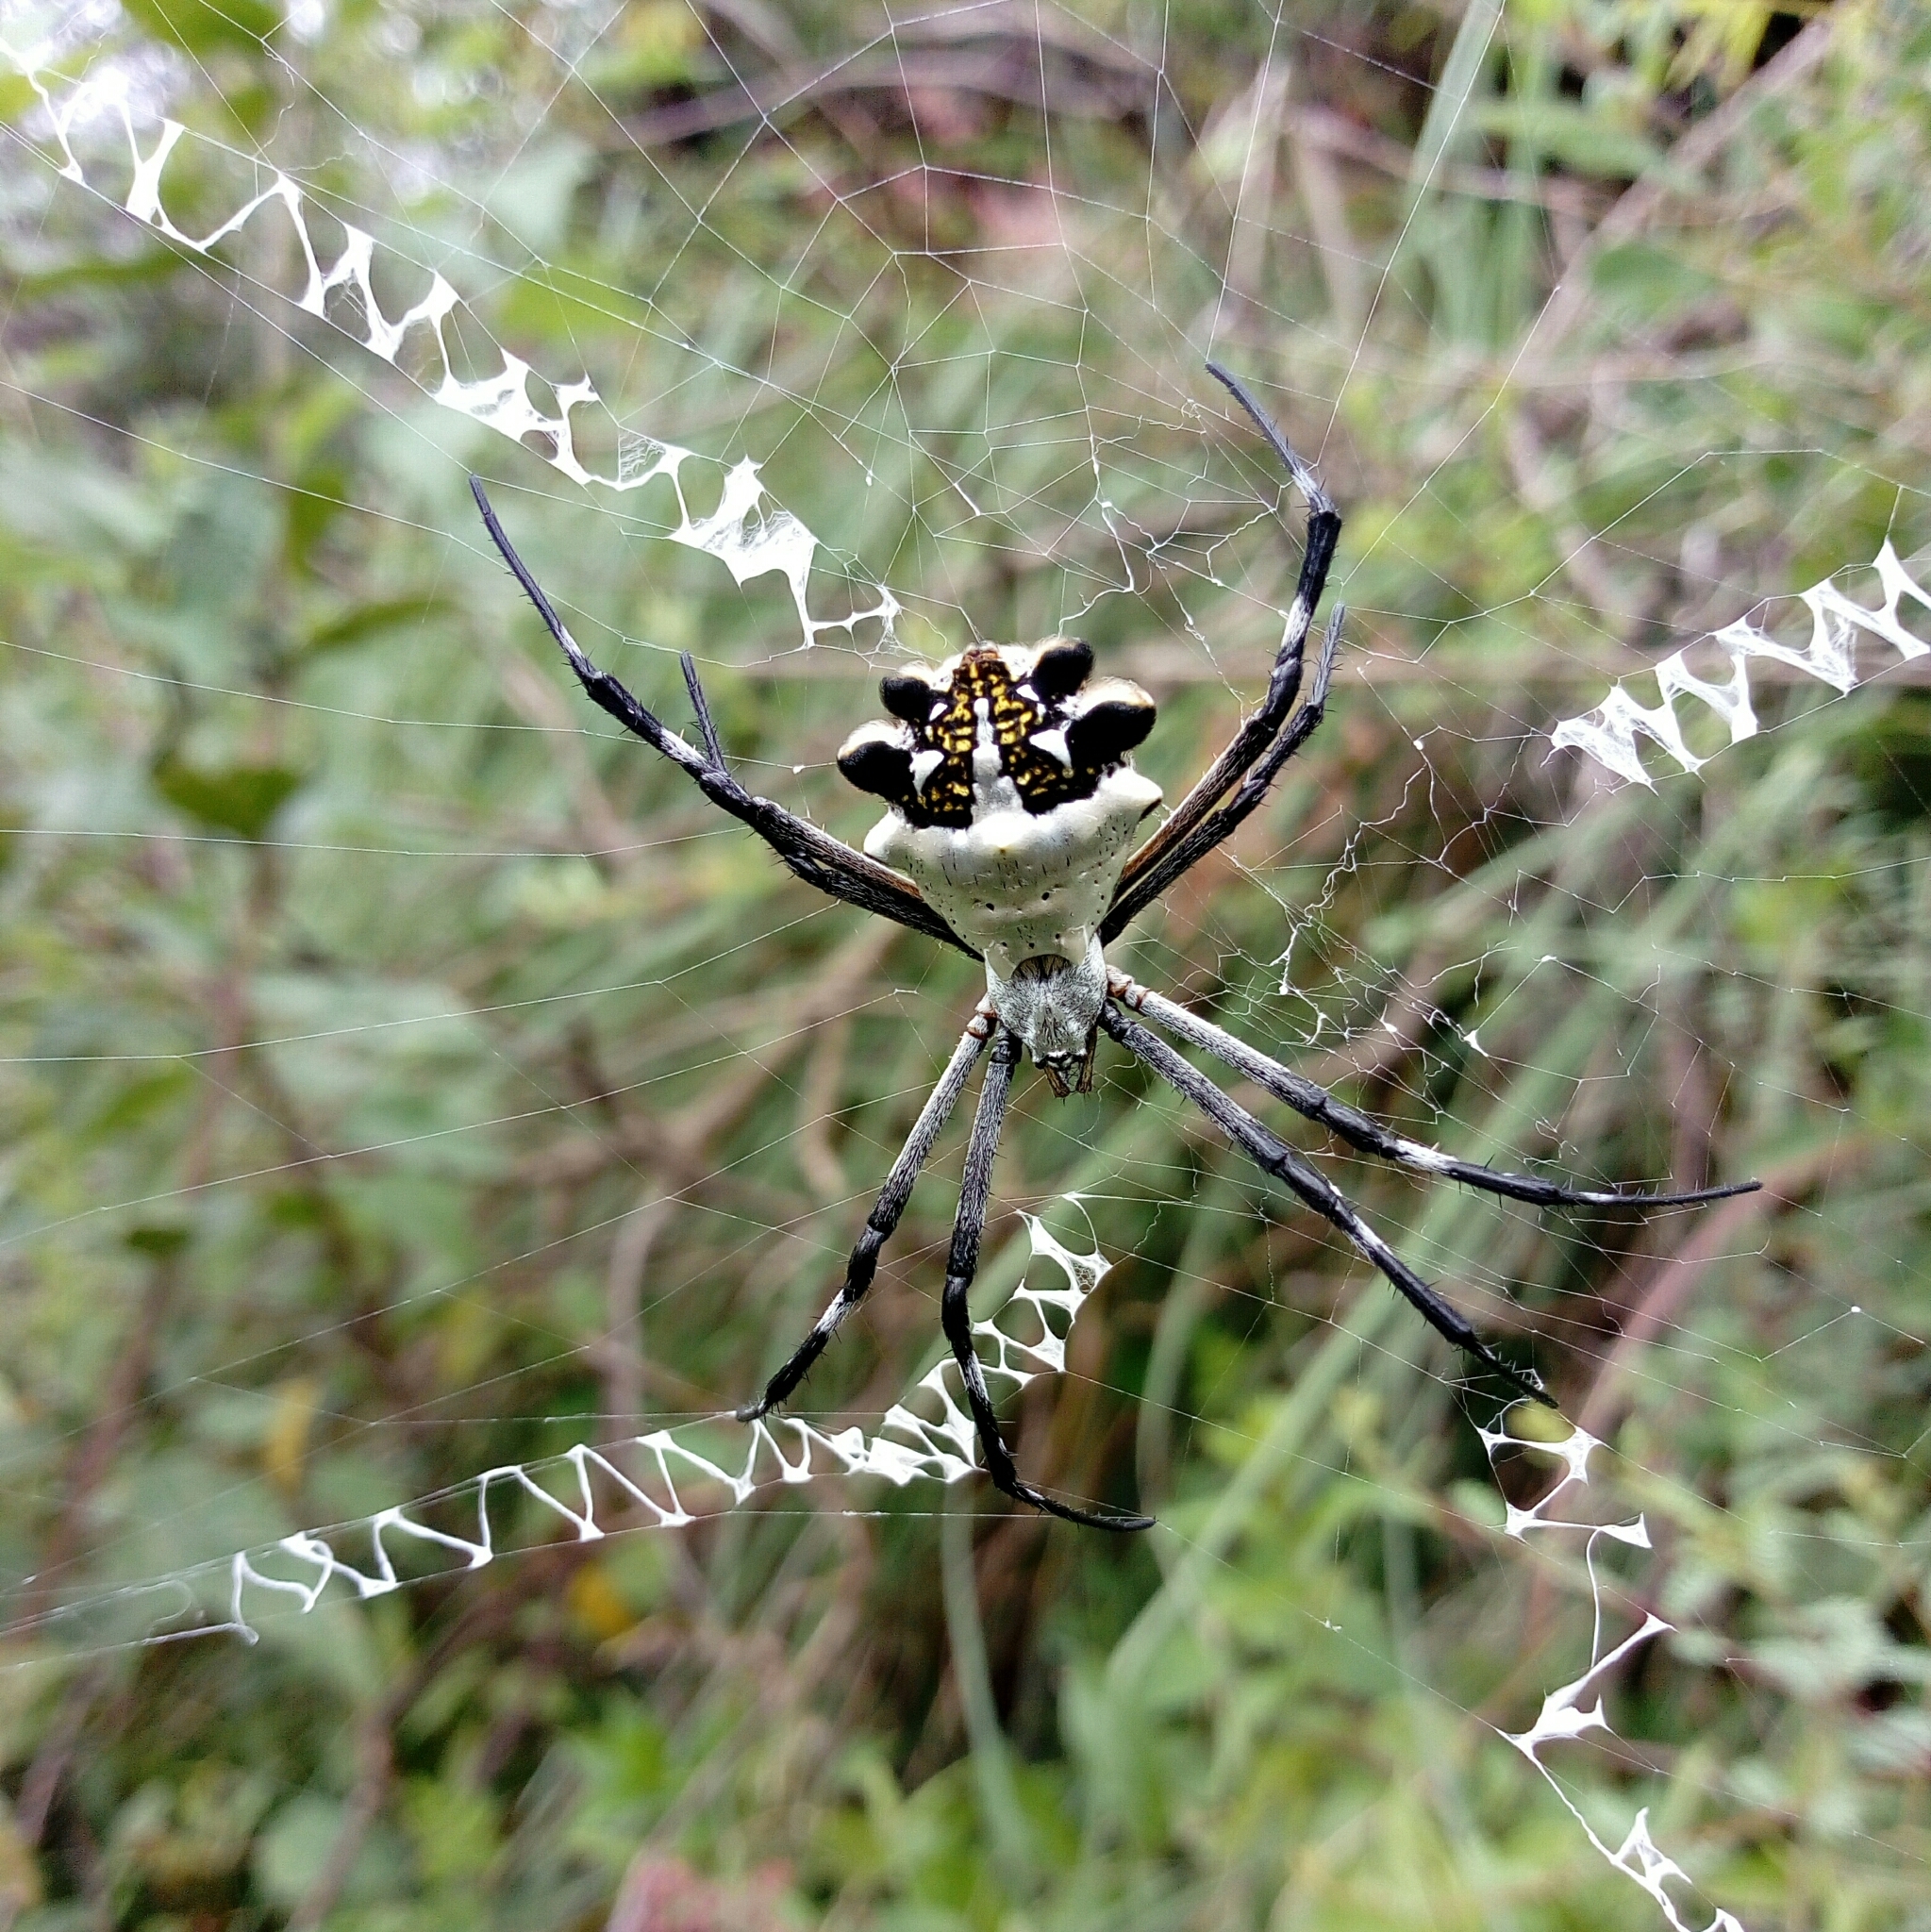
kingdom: Animalia
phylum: Arthropoda
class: Arachnida
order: Araneae
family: Araneidae
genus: Argiope
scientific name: Argiope argentata
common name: Orb weavers
